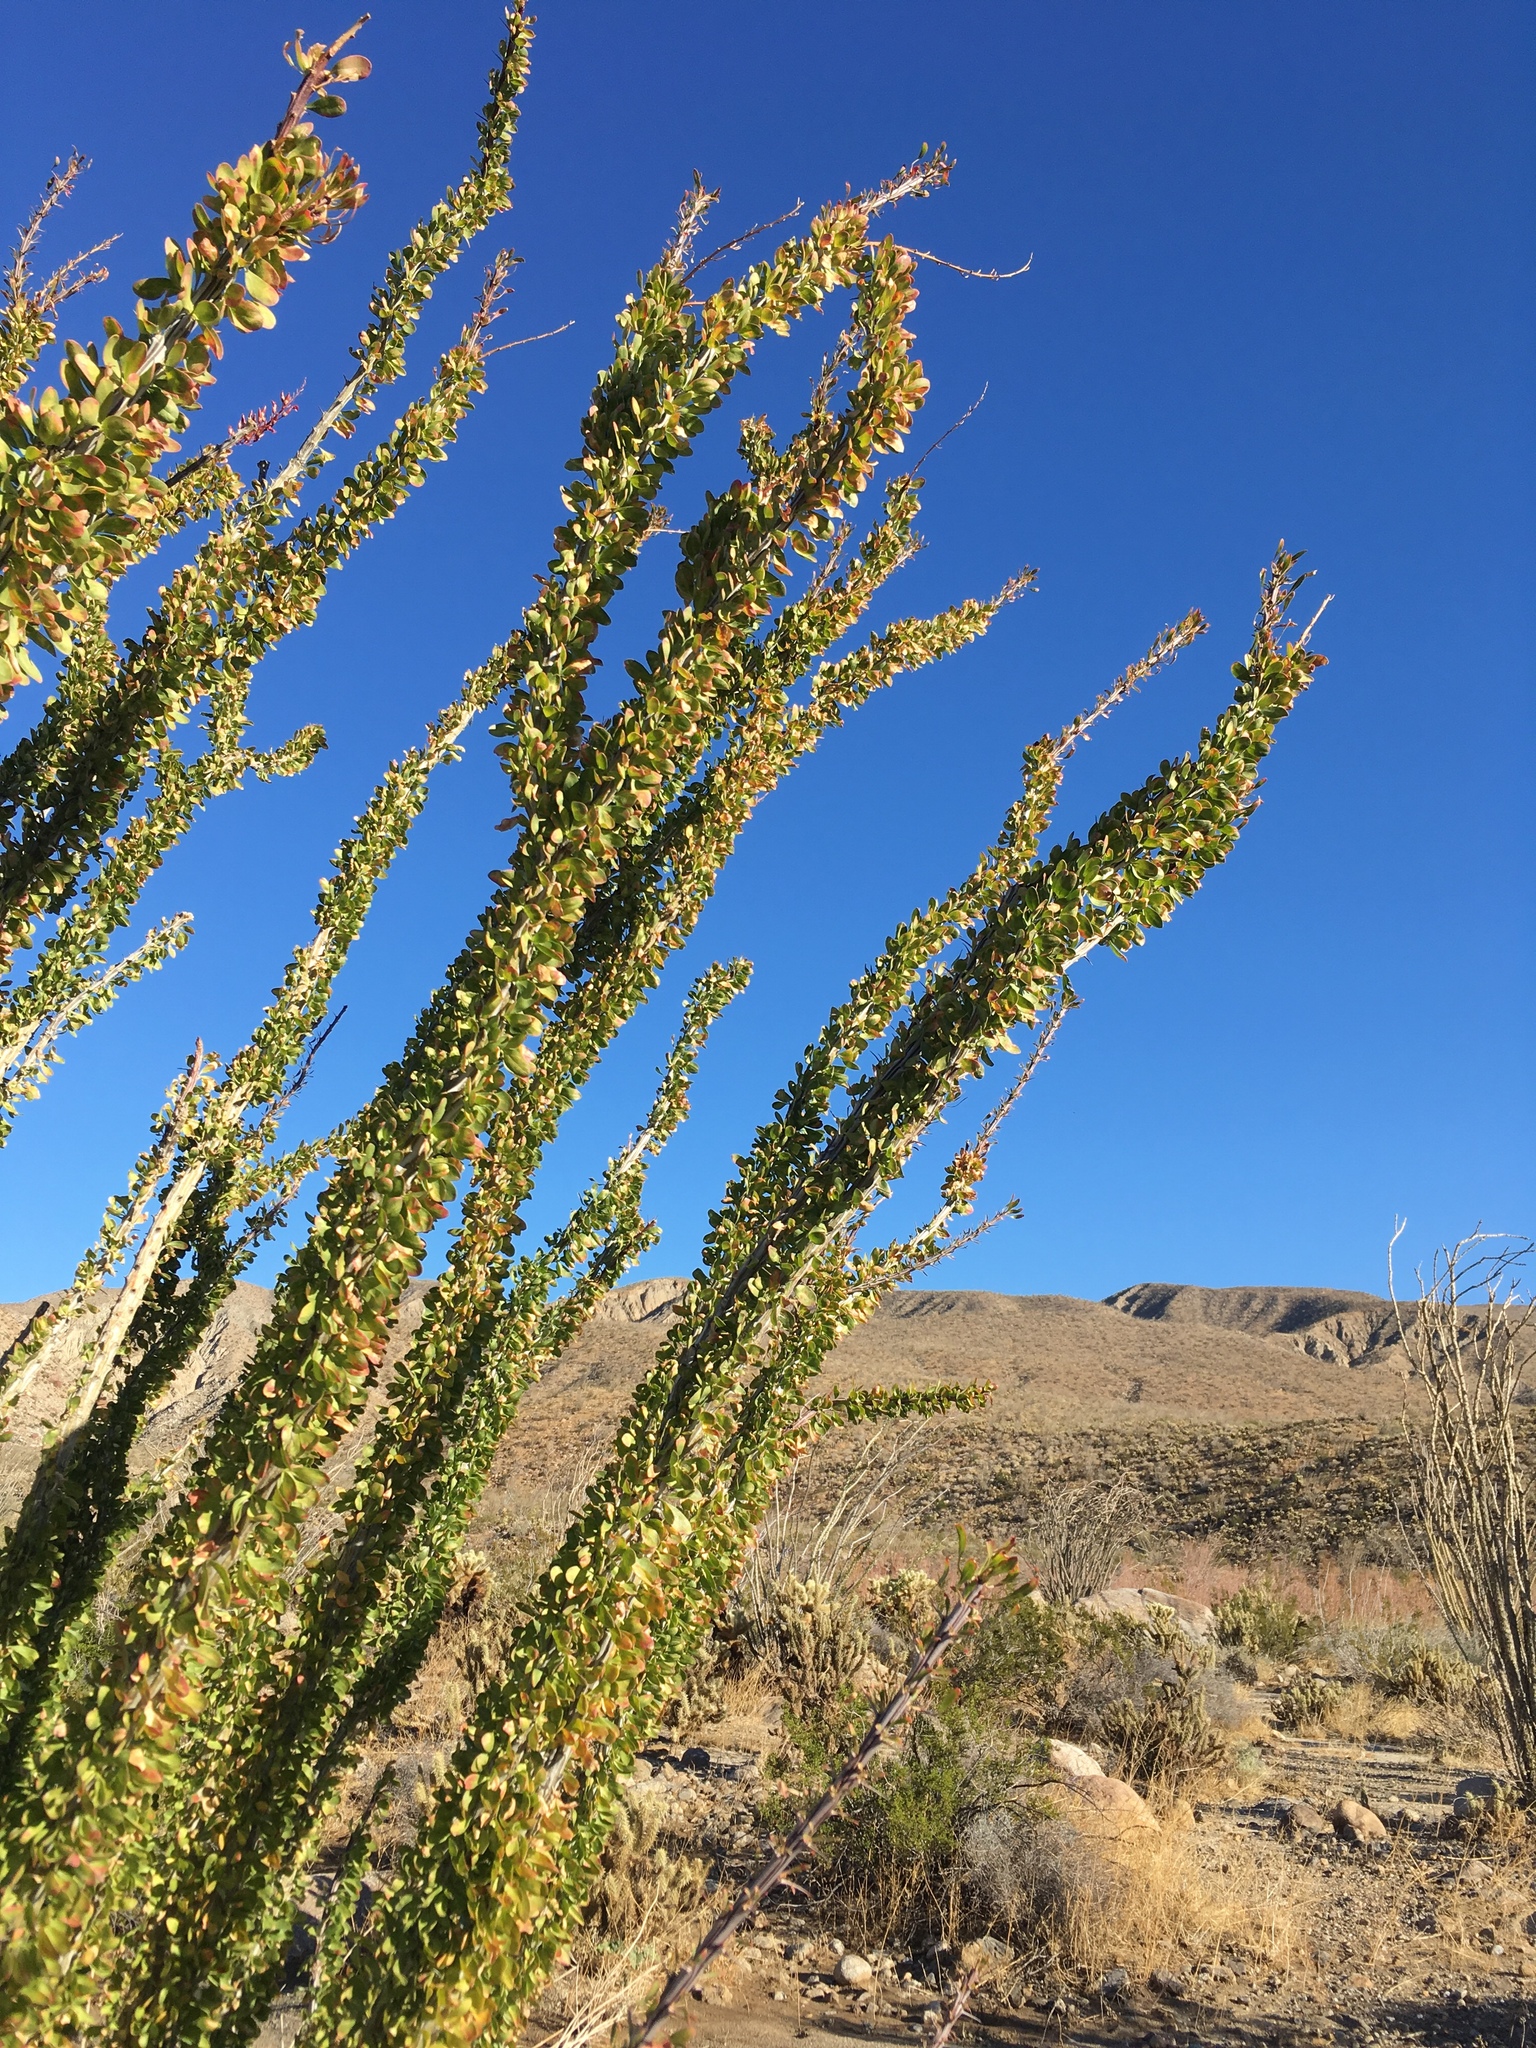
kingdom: Plantae
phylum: Tracheophyta
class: Magnoliopsida
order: Ericales
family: Fouquieriaceae
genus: Fouquieria
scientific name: Fouquieria splendens
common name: Vine-cactus
